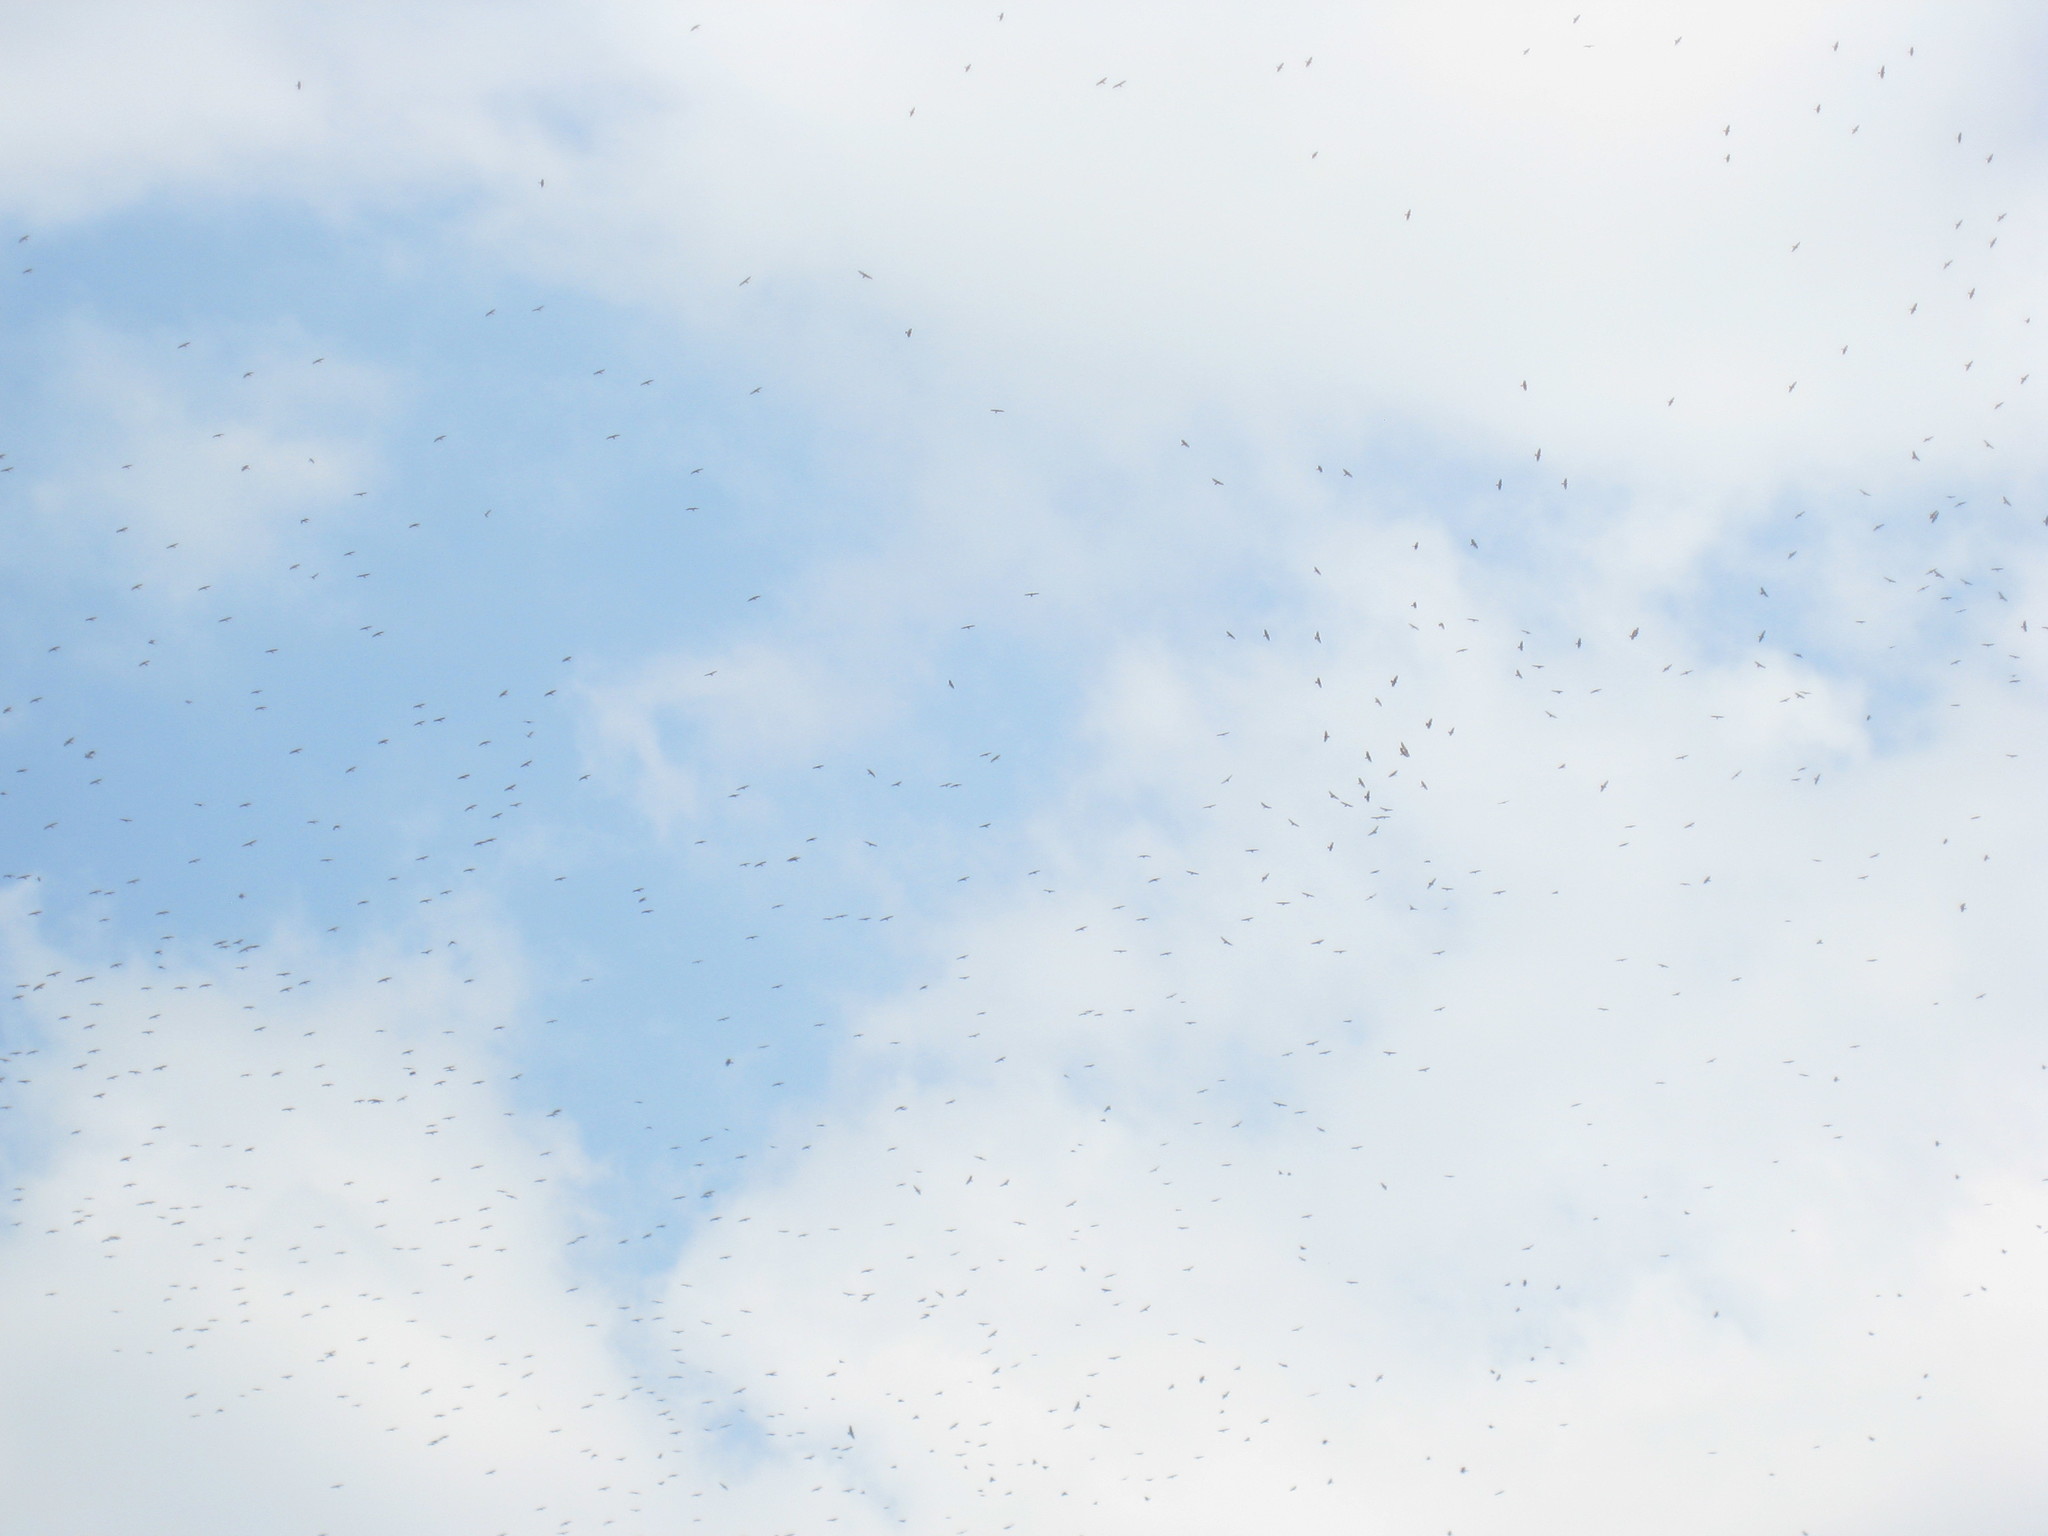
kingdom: Animalia
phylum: Chordata
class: Aves
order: Accipitriformes
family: Accipitridae
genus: Buteo
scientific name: Buteo platypterus
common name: Broad-winged hawk
